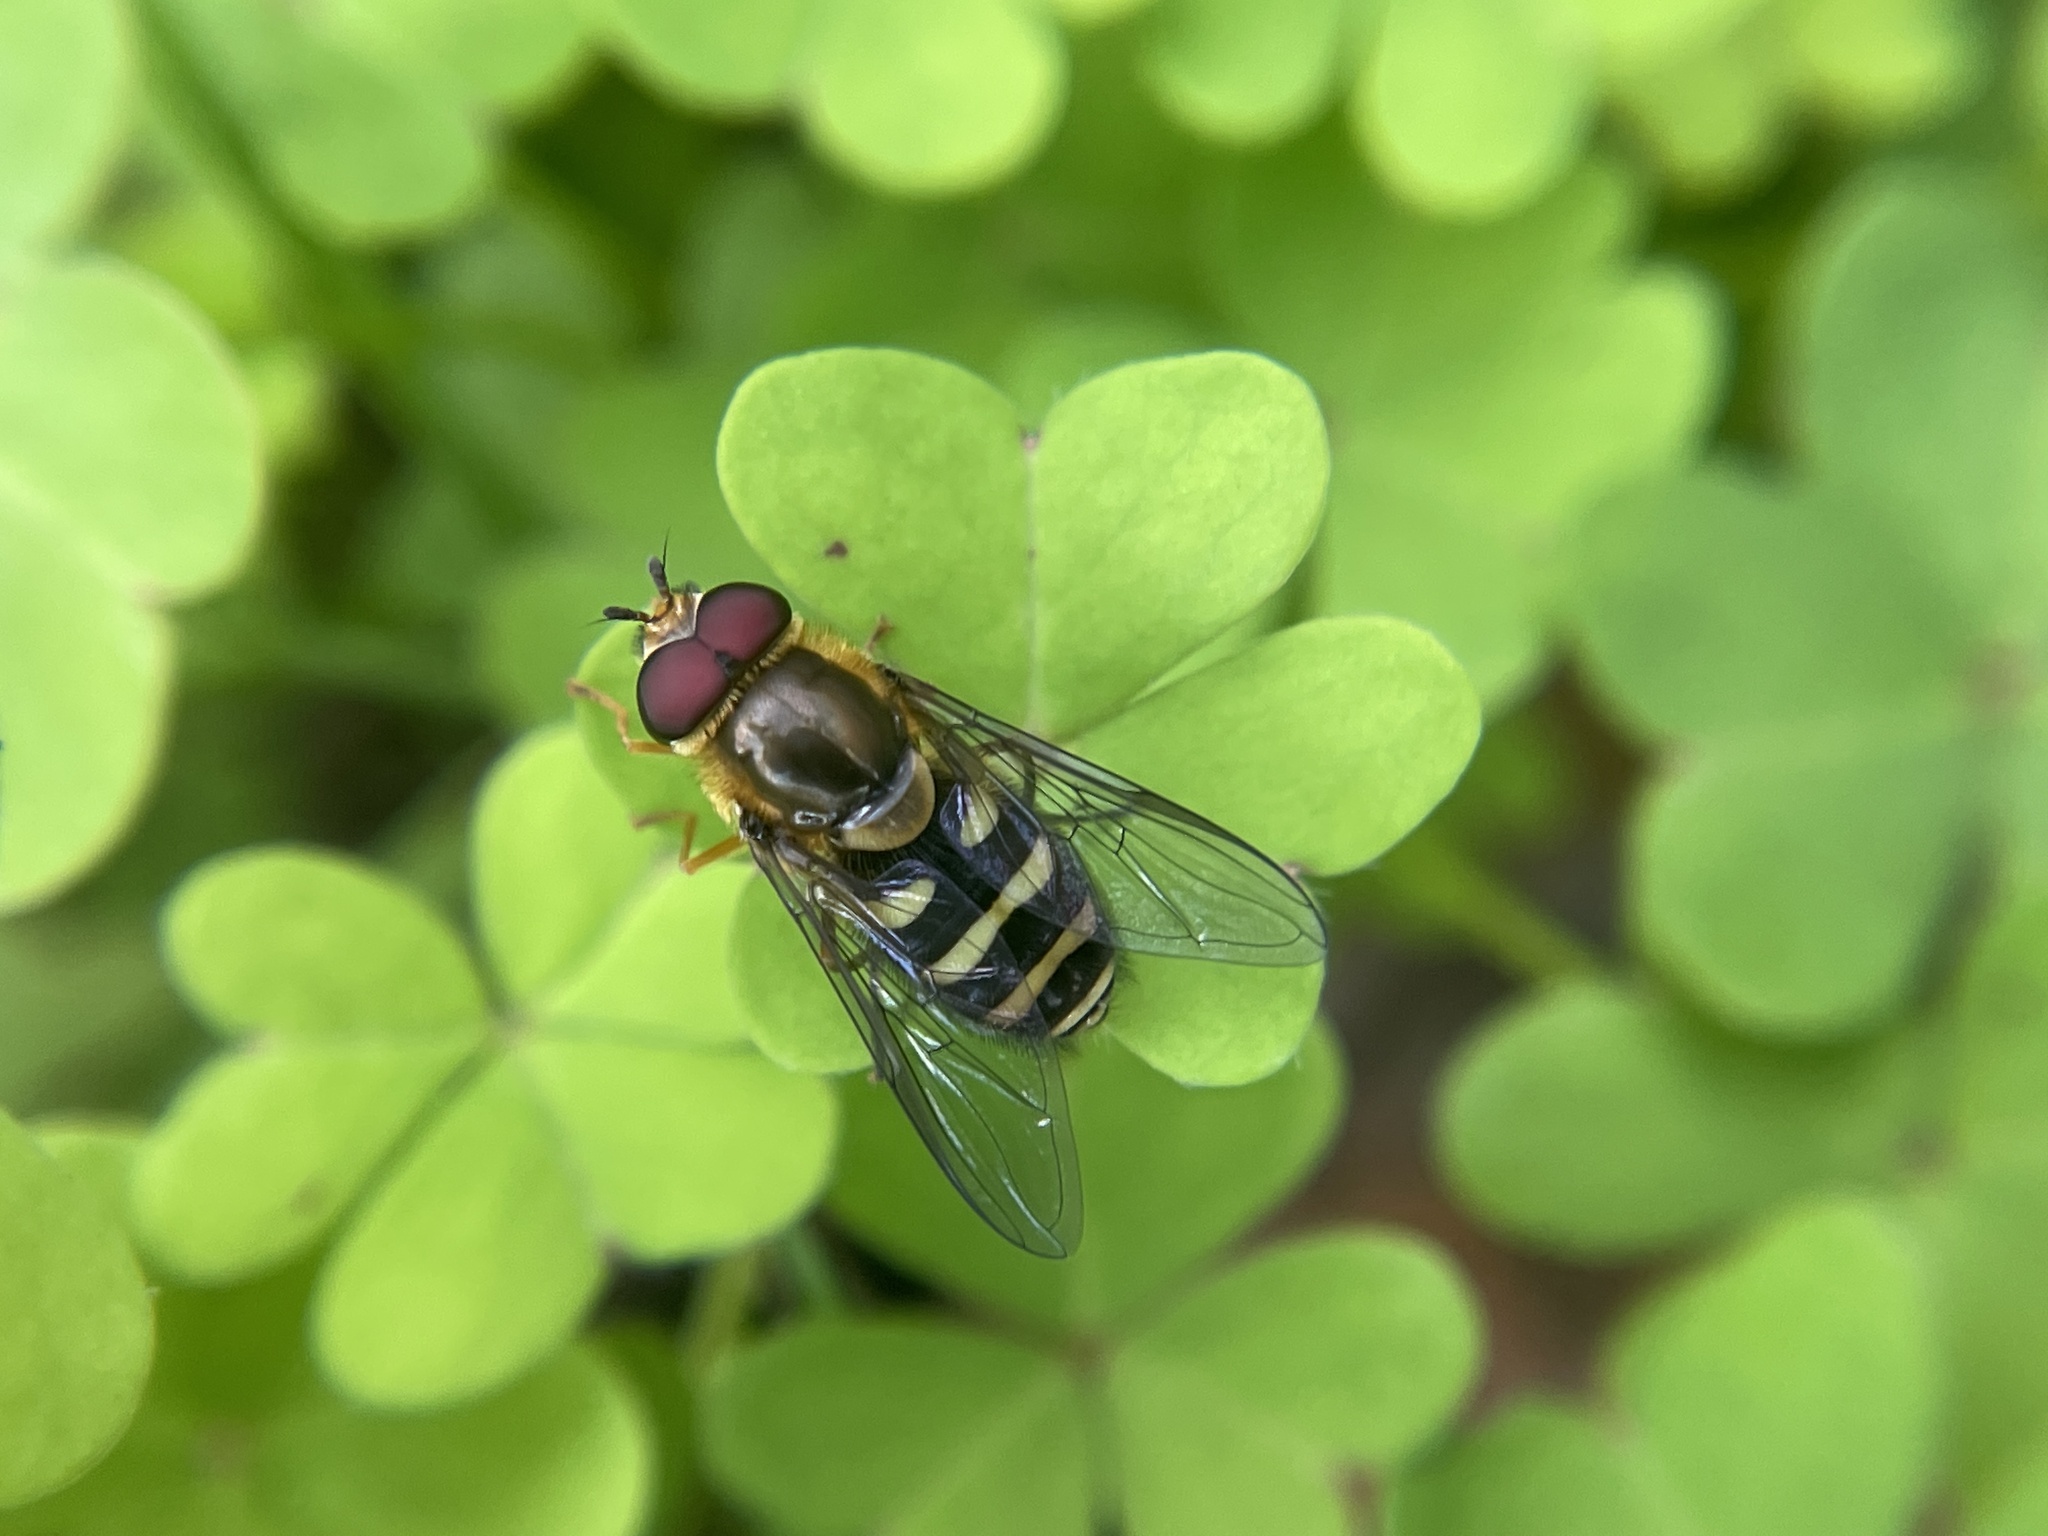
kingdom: Animalia
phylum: Arthropoda
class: Insecta
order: Diptera
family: Syrphidae
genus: Syrphus
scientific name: Syrphus opinator
